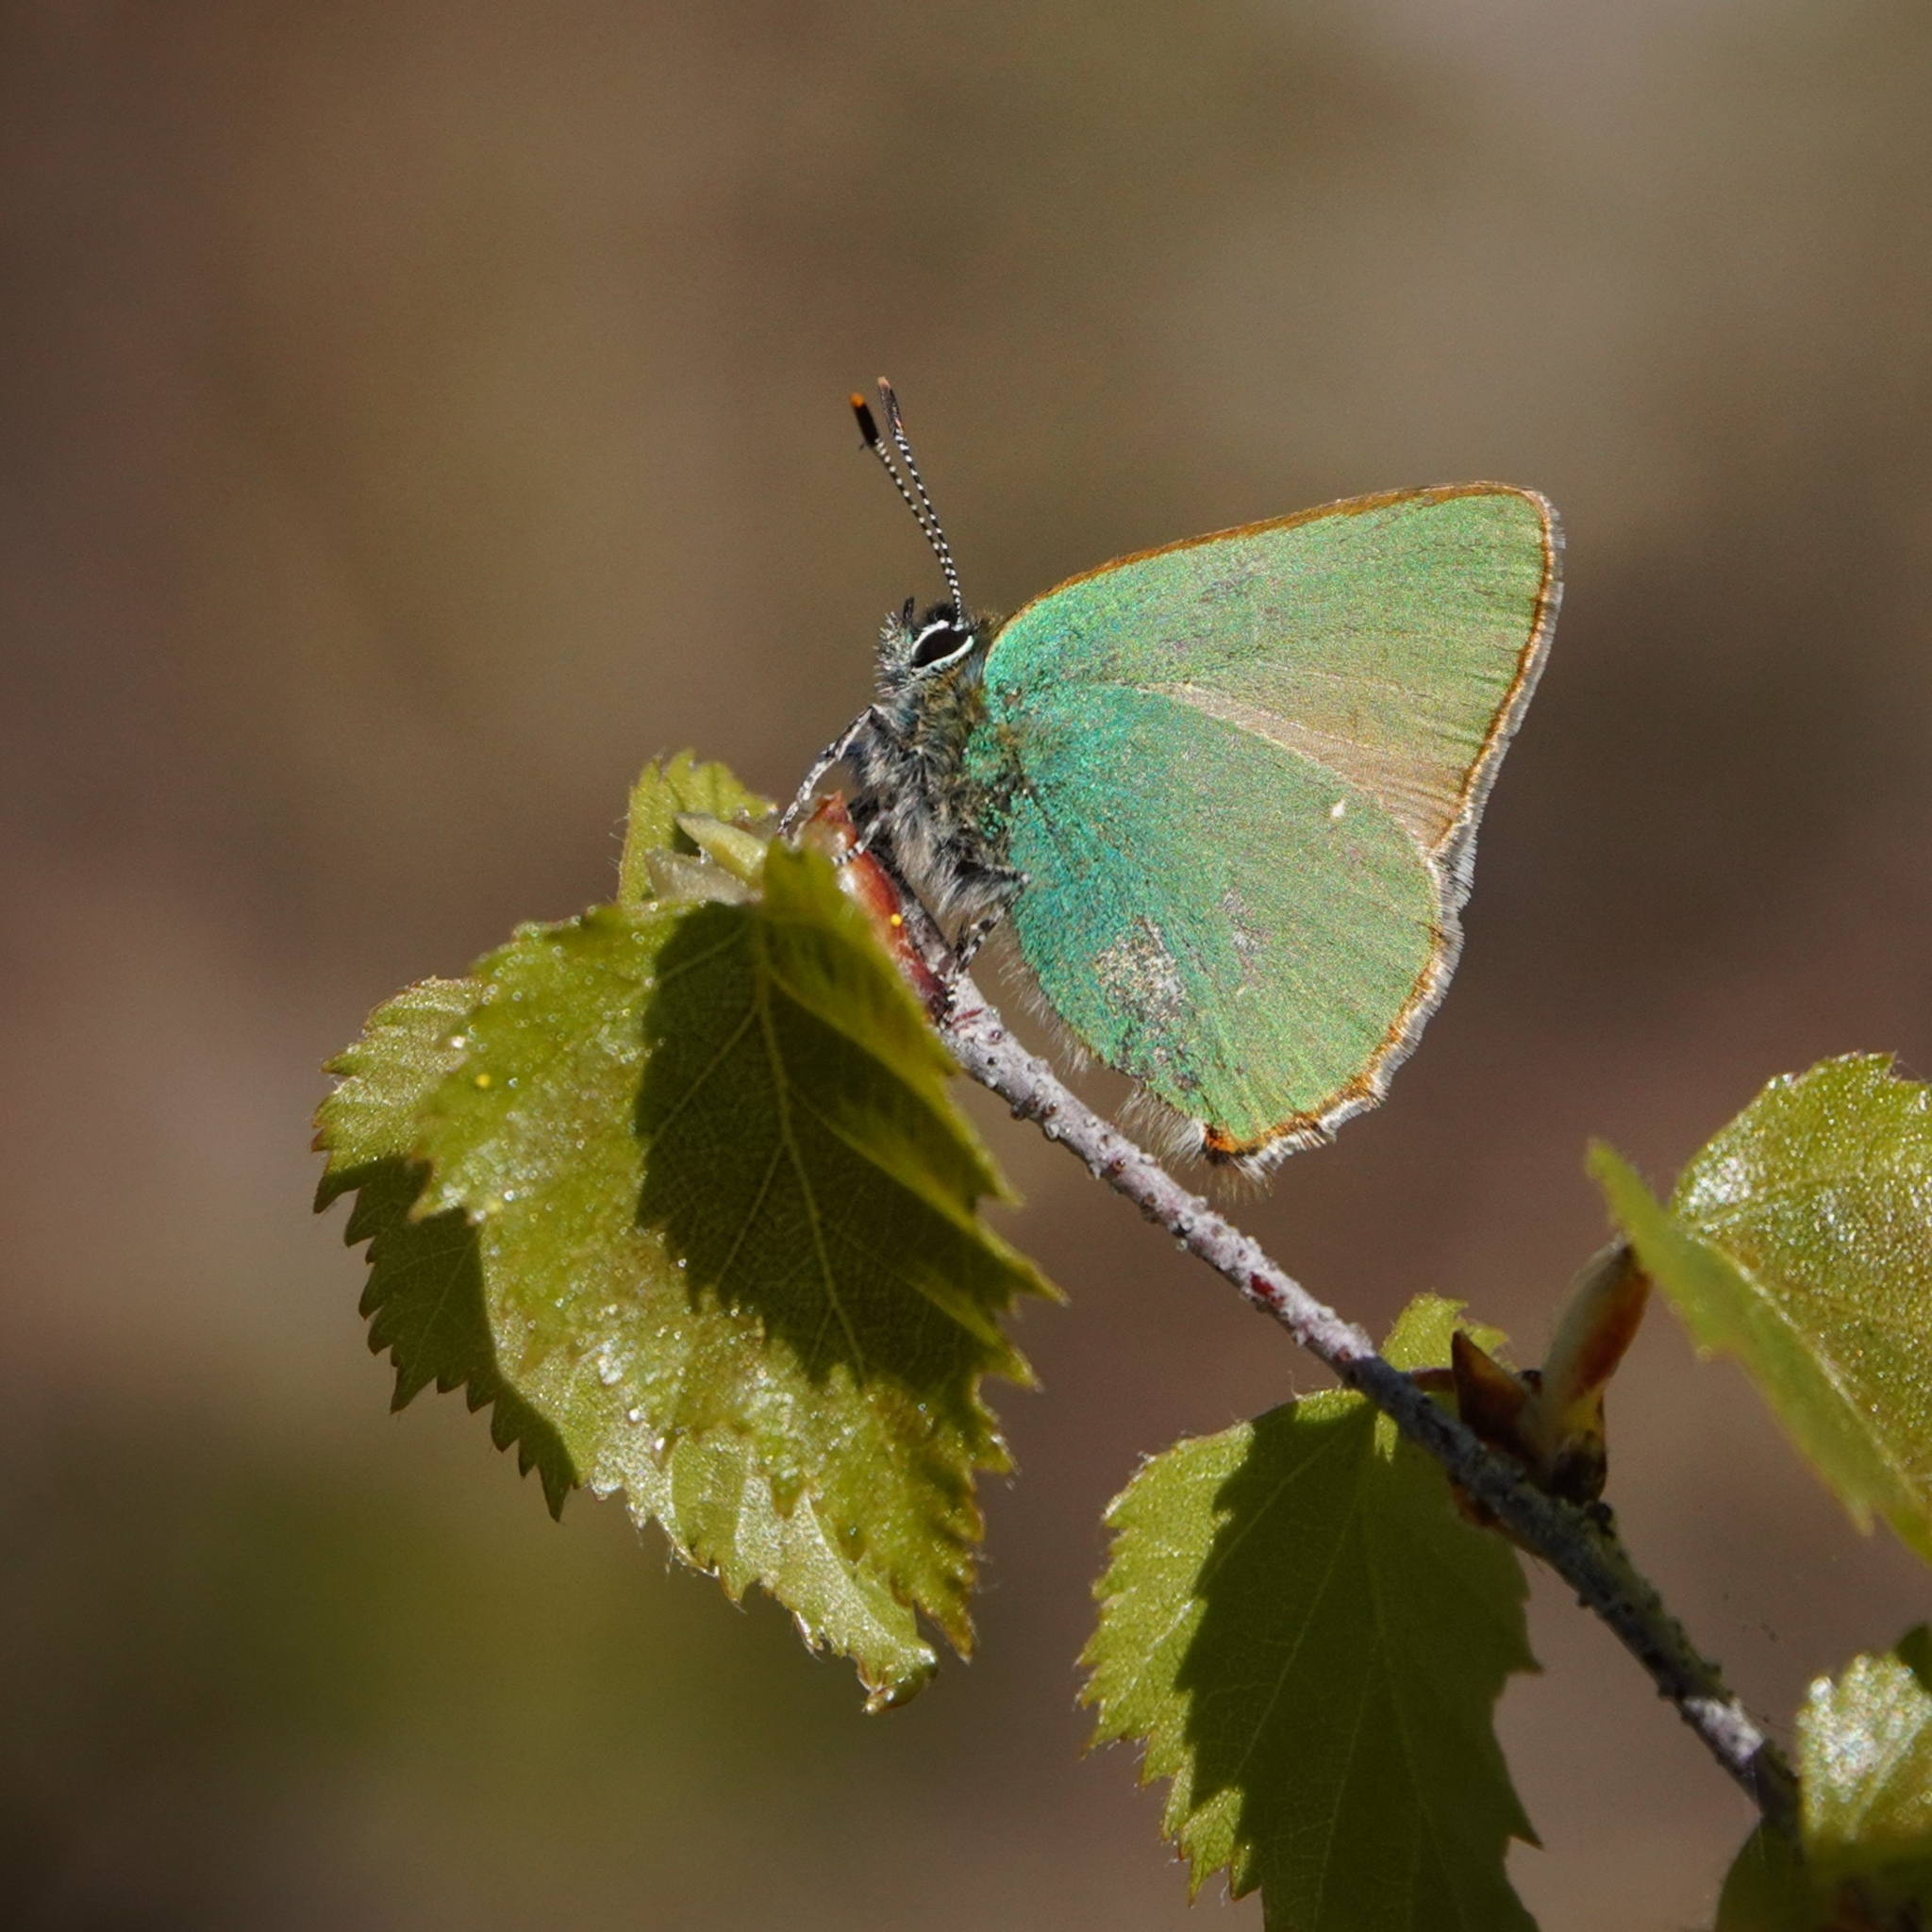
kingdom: Animalia
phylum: Arthropoda
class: Insecta
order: Lepidoptera
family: Lycaenidae
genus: Callophrys
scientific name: Callophrys rubi
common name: Green hairstreak
